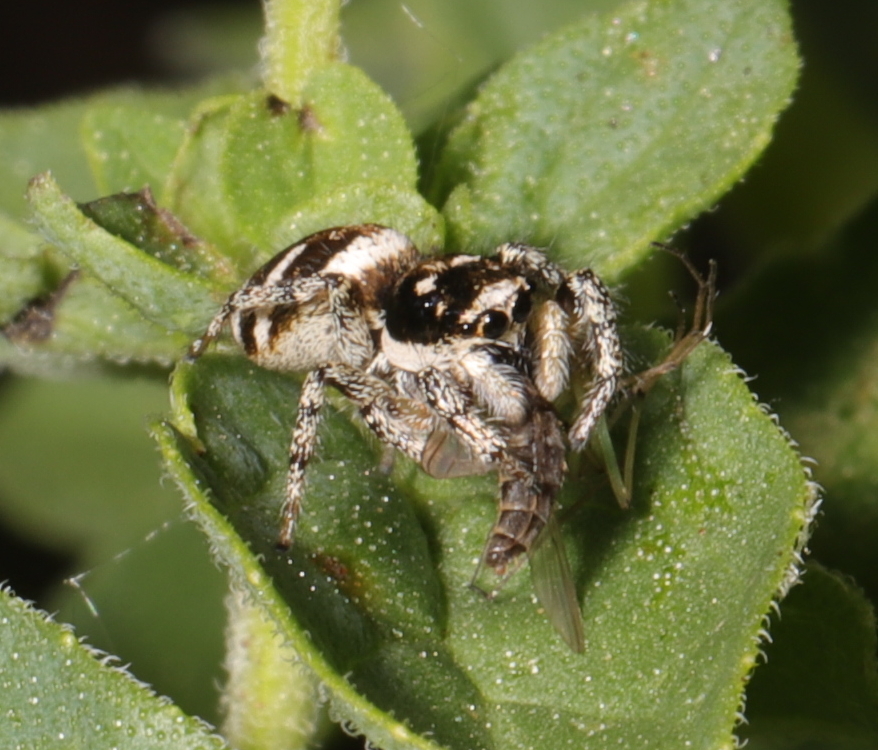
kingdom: Animalia
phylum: Arthropoda
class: Arachnida
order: Araneae
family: Salticidae
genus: Salticus
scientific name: Salticus scenicus
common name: Zebra jumper
